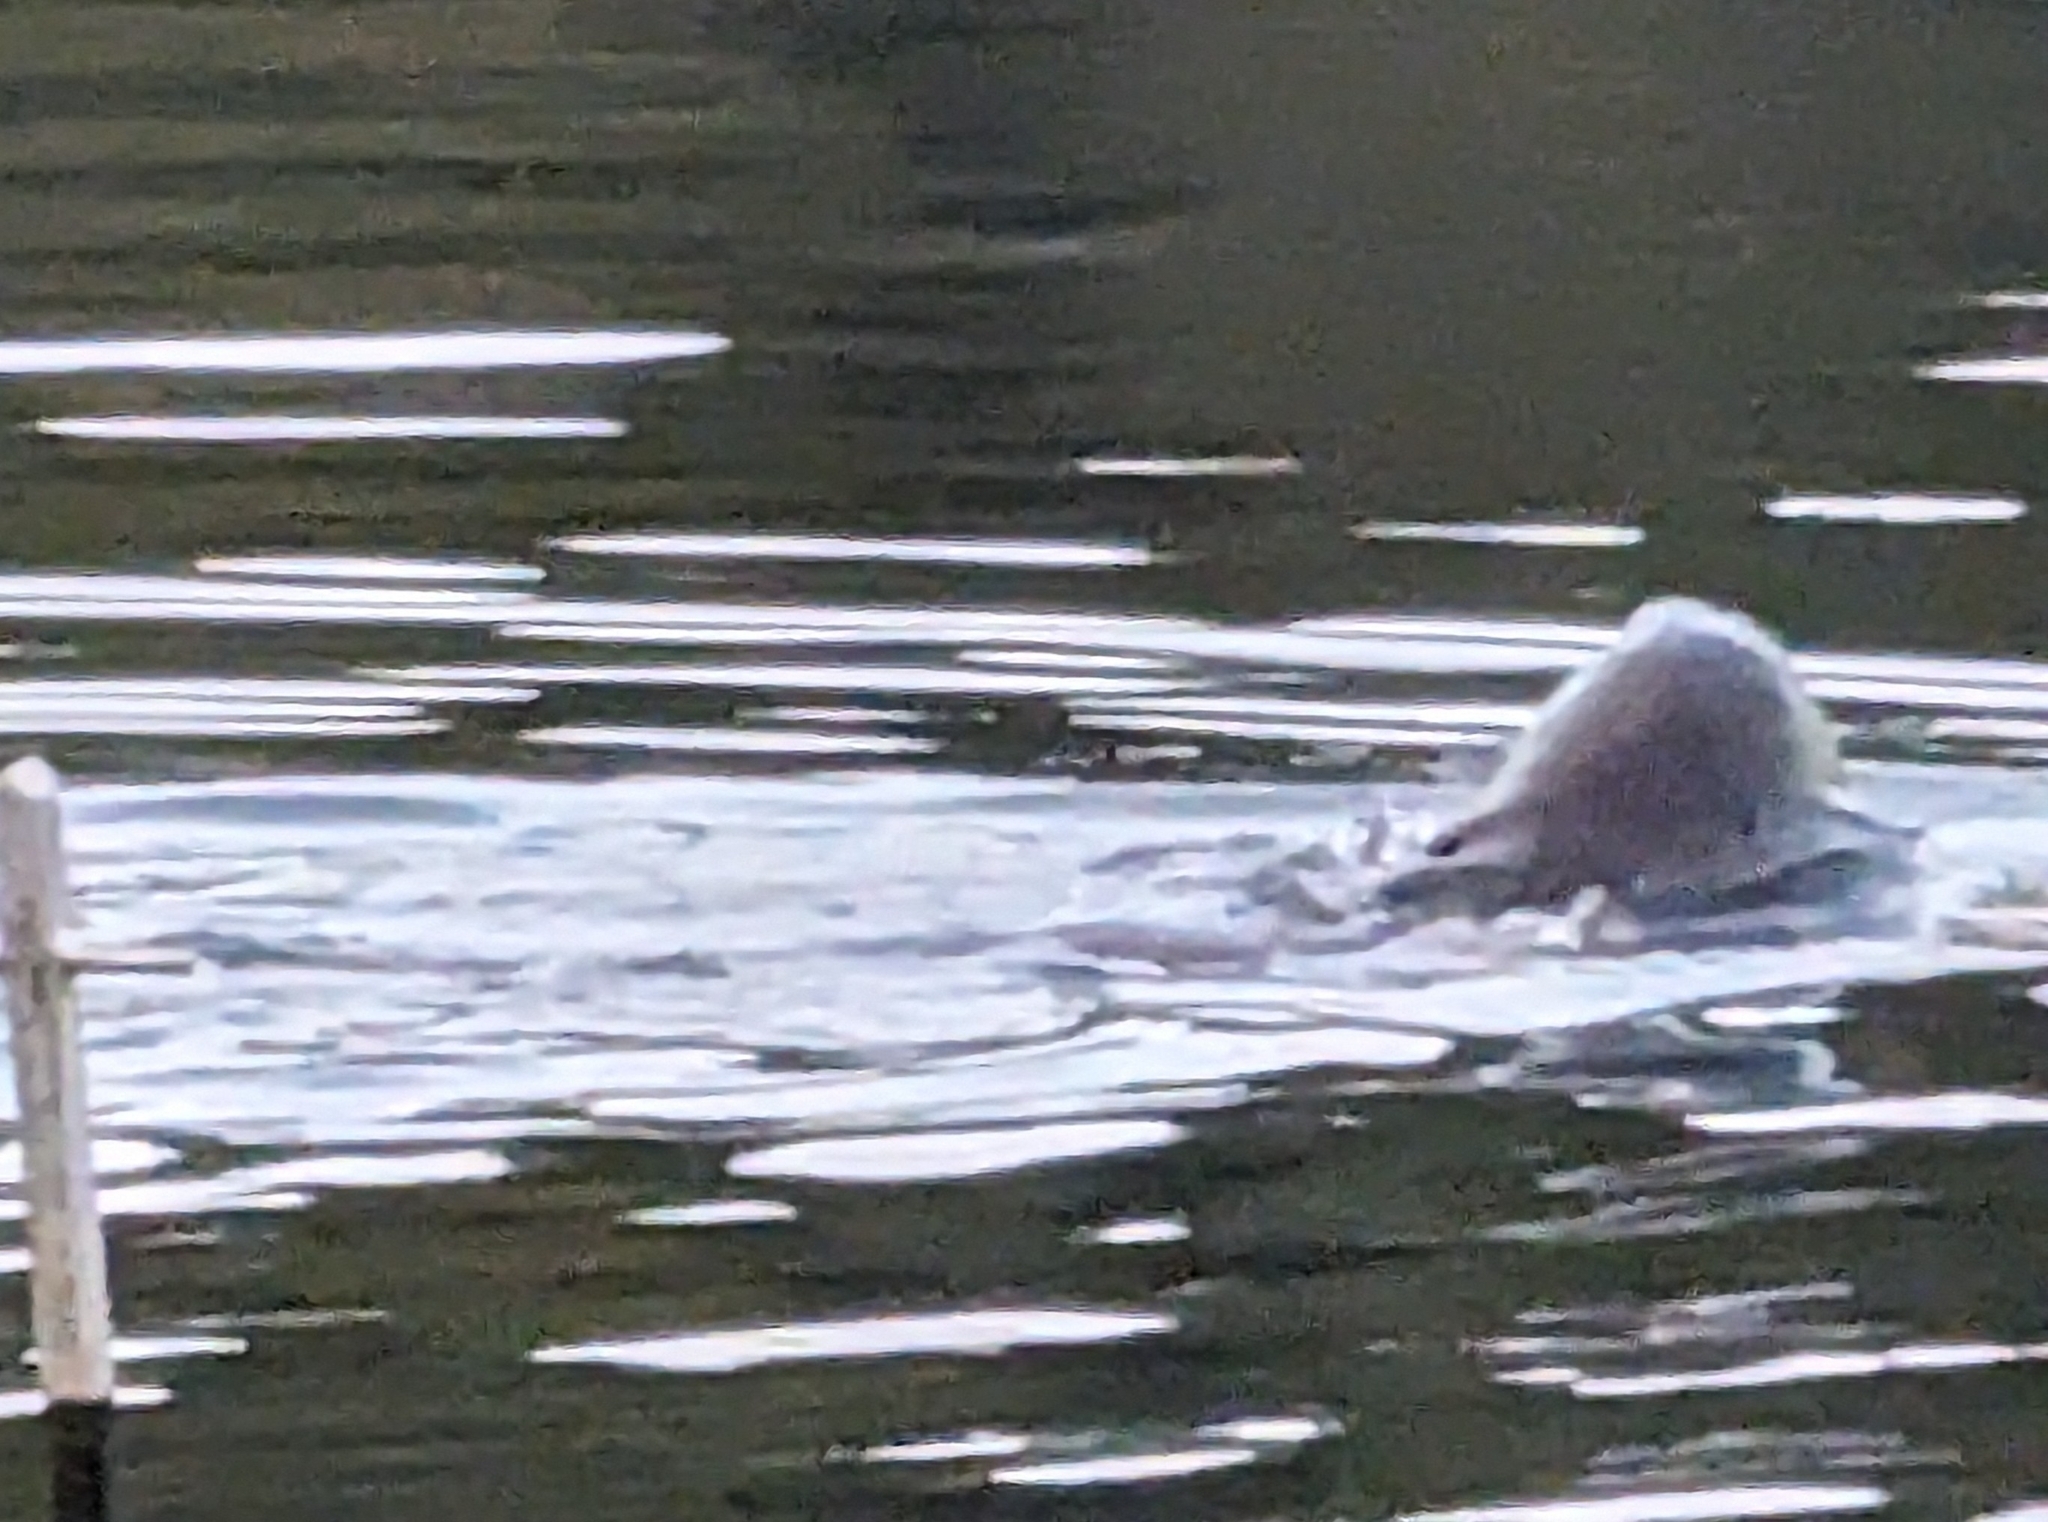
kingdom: Animalia
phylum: Chordata
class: Mammalia
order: Carnivora
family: Otariidae
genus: Zalophus
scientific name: Zalophus californianus
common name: California sea lion
